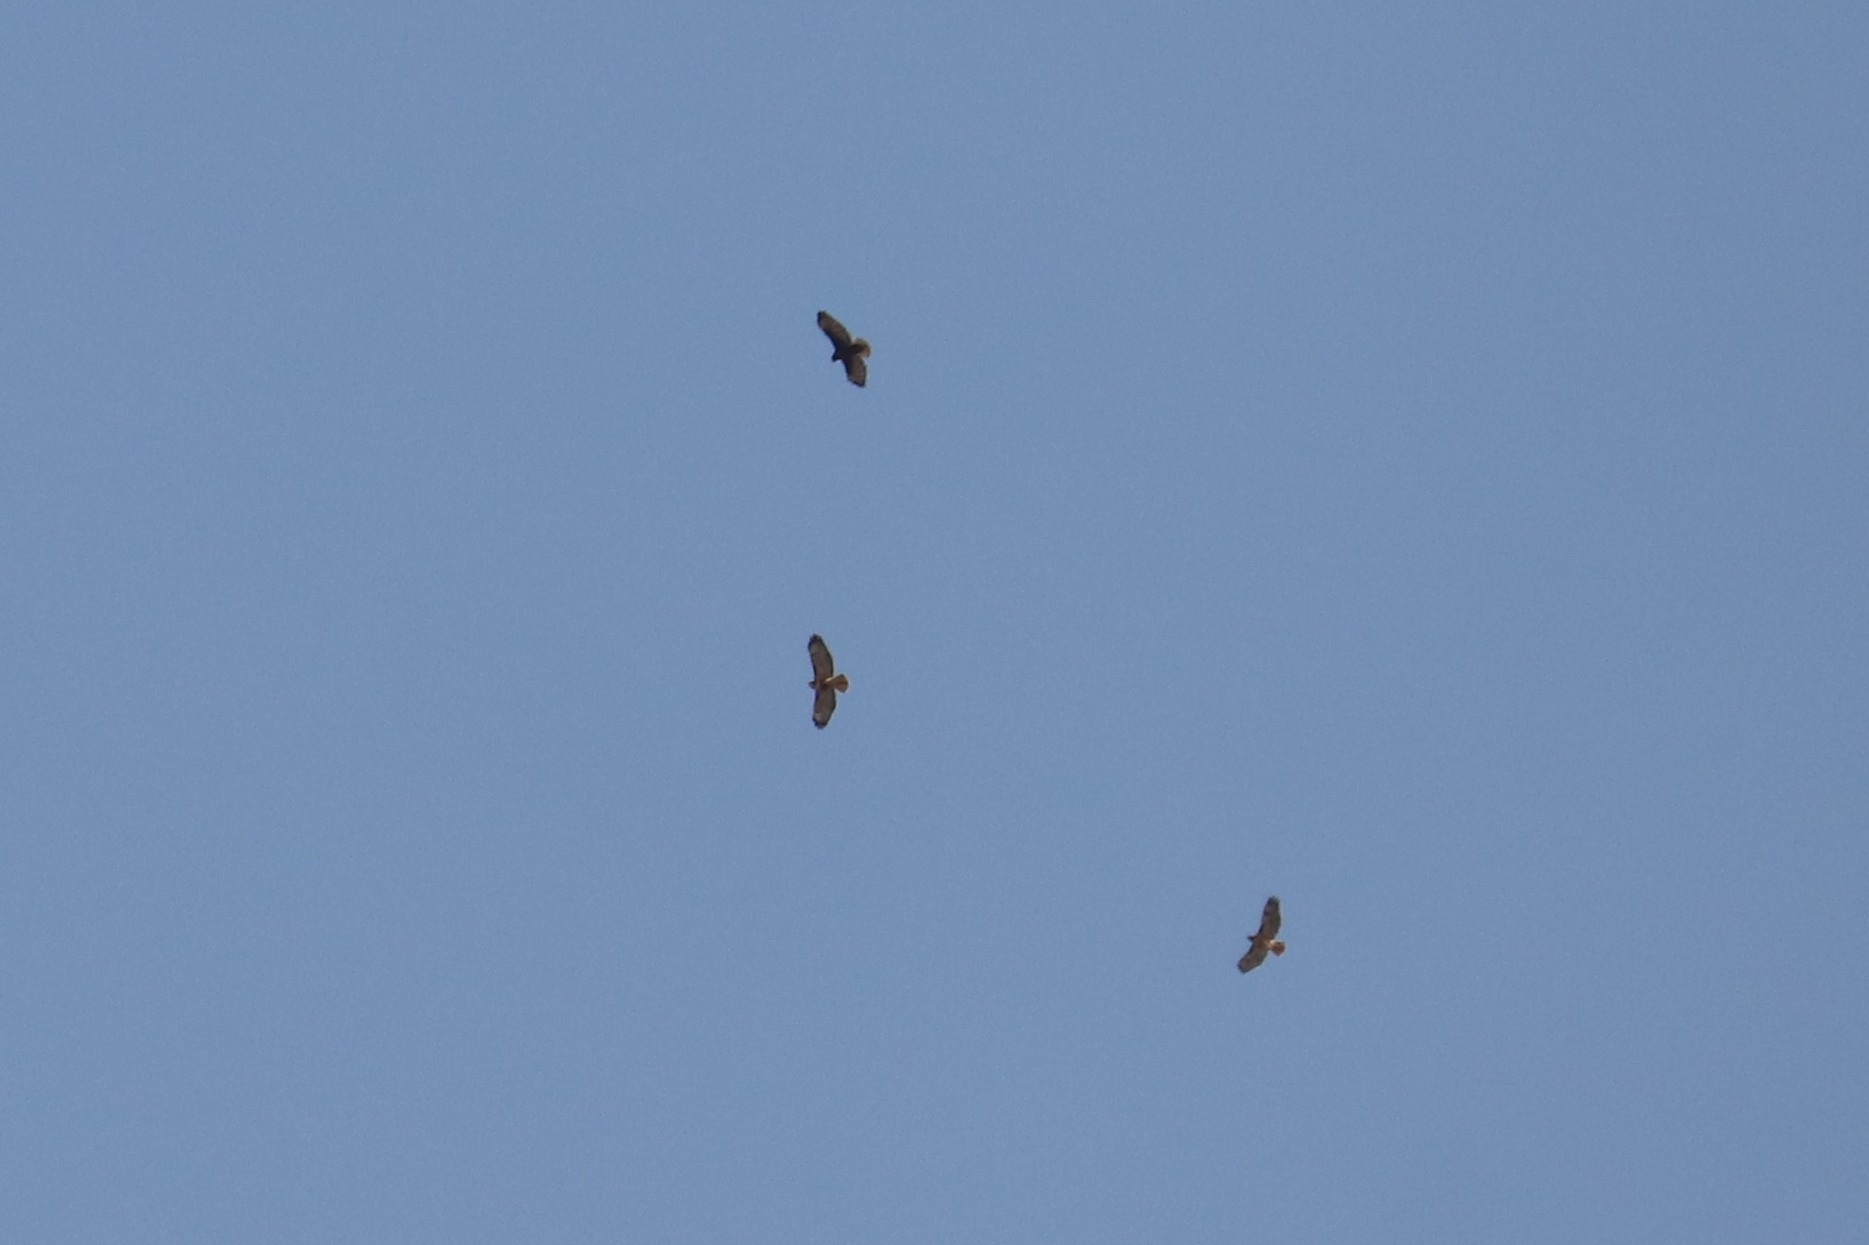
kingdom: Animalia
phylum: Chordata
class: Aves
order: Accipitriformes
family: Accipitridae
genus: Buteo
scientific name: Buteo jamaicensis
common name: Red-tailed hawk
